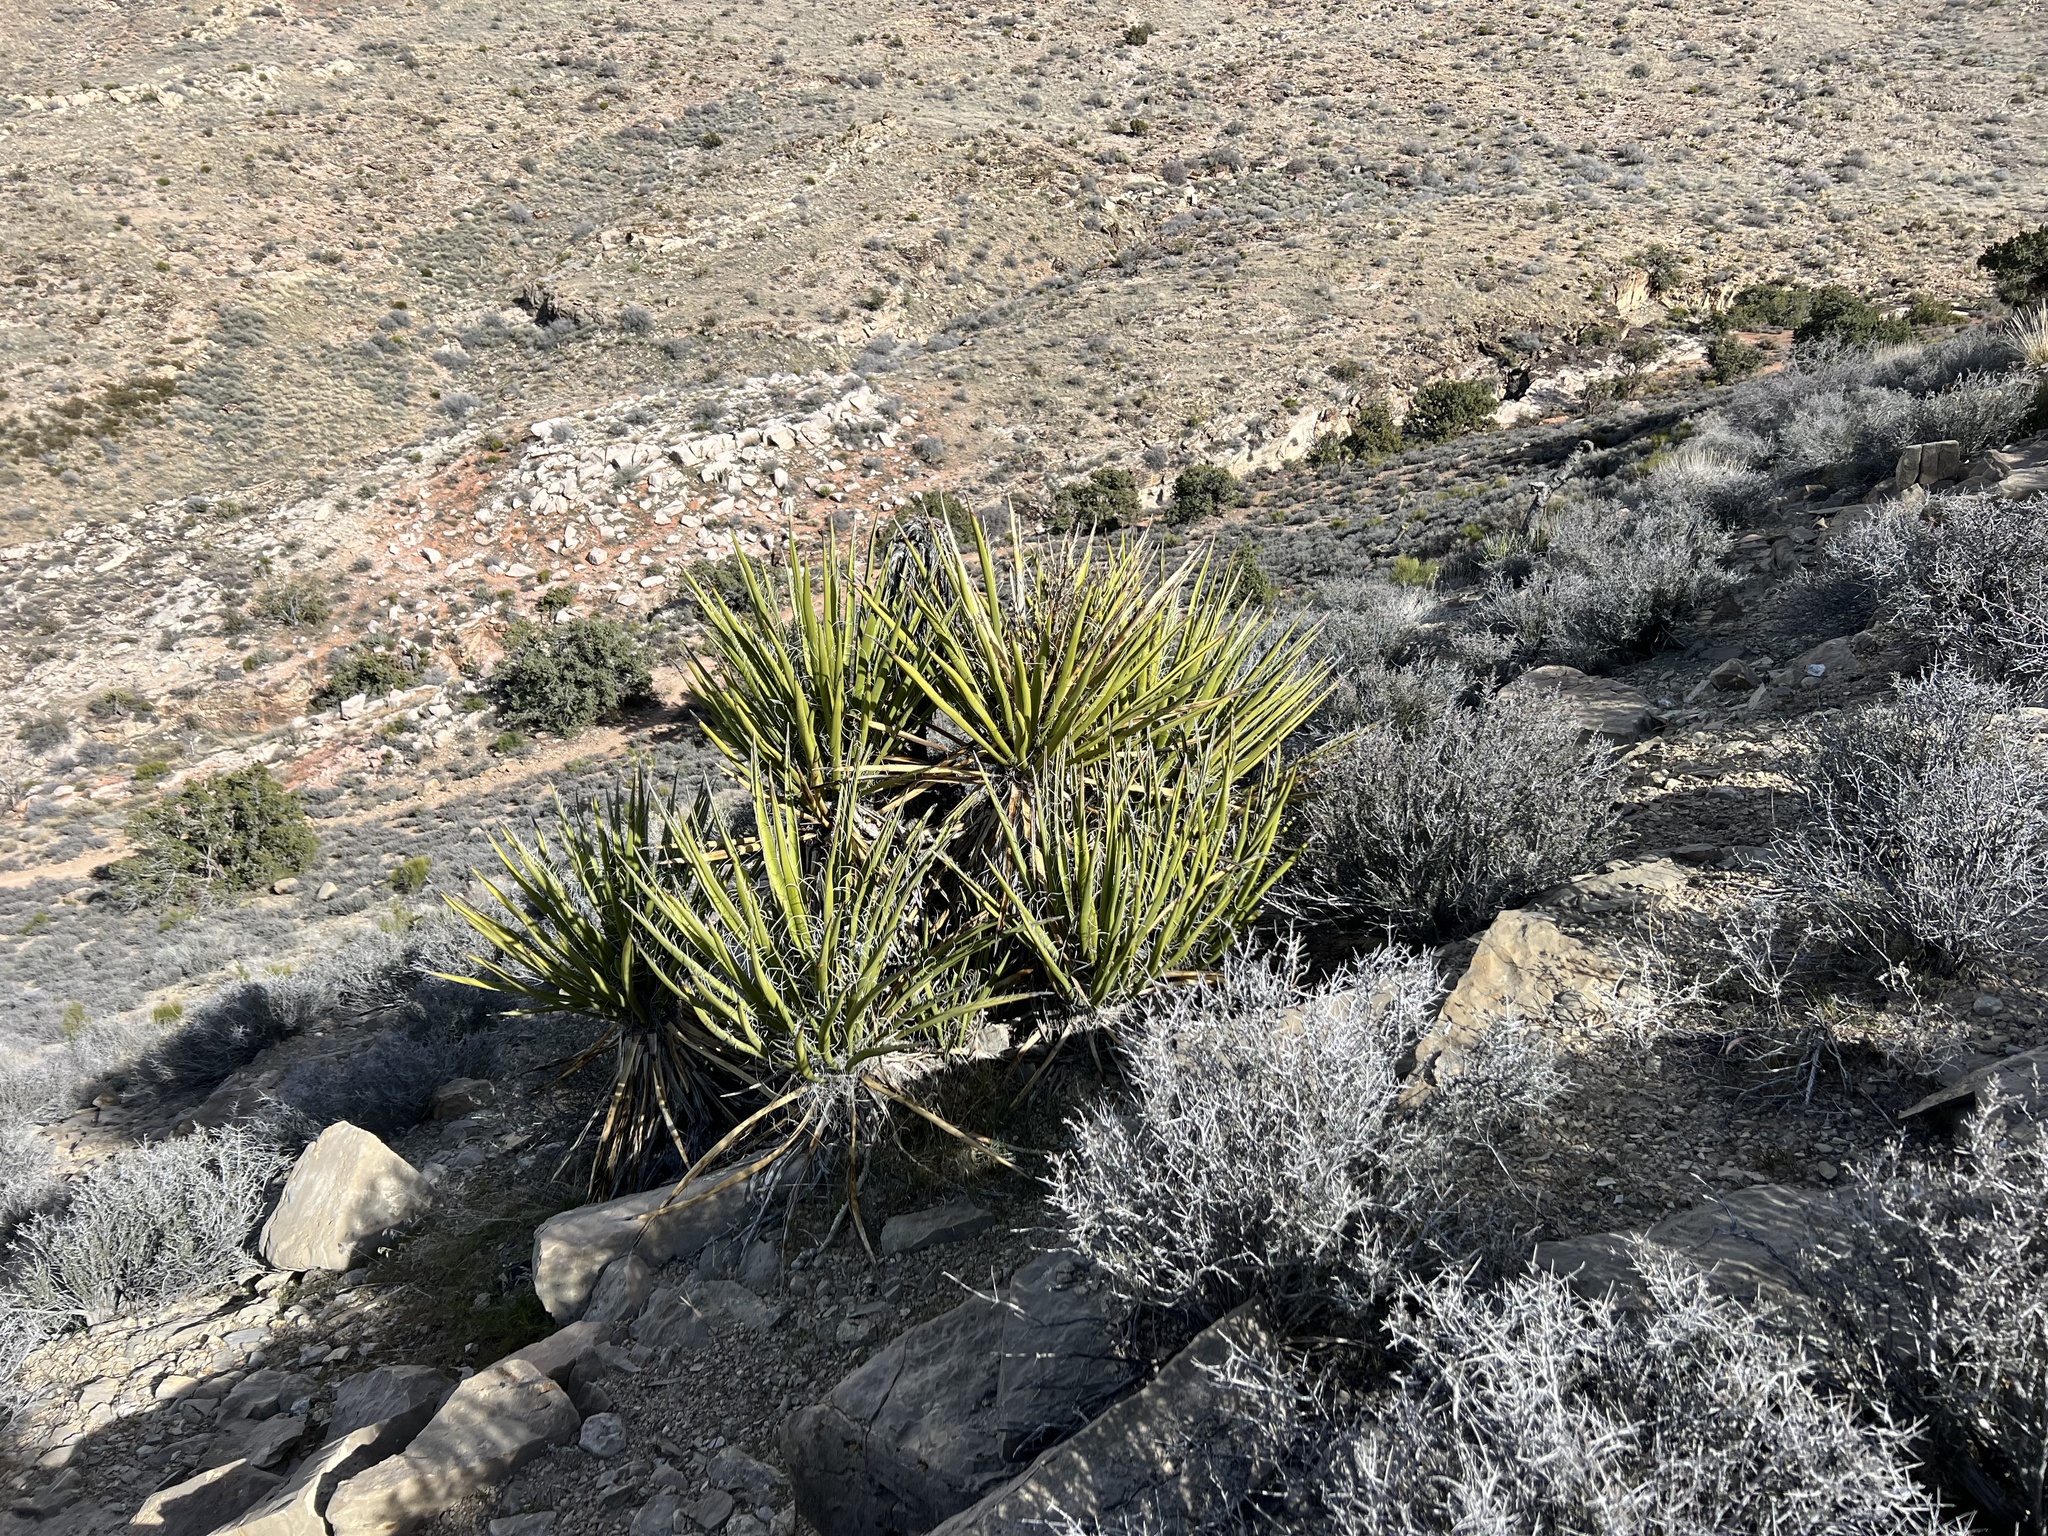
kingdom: Plantae
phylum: Tracheophyta
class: Liliopsida
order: Asparagales
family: Asparagaceae
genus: Yucca
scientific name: Yucca schidigera
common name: Mojave yucca
